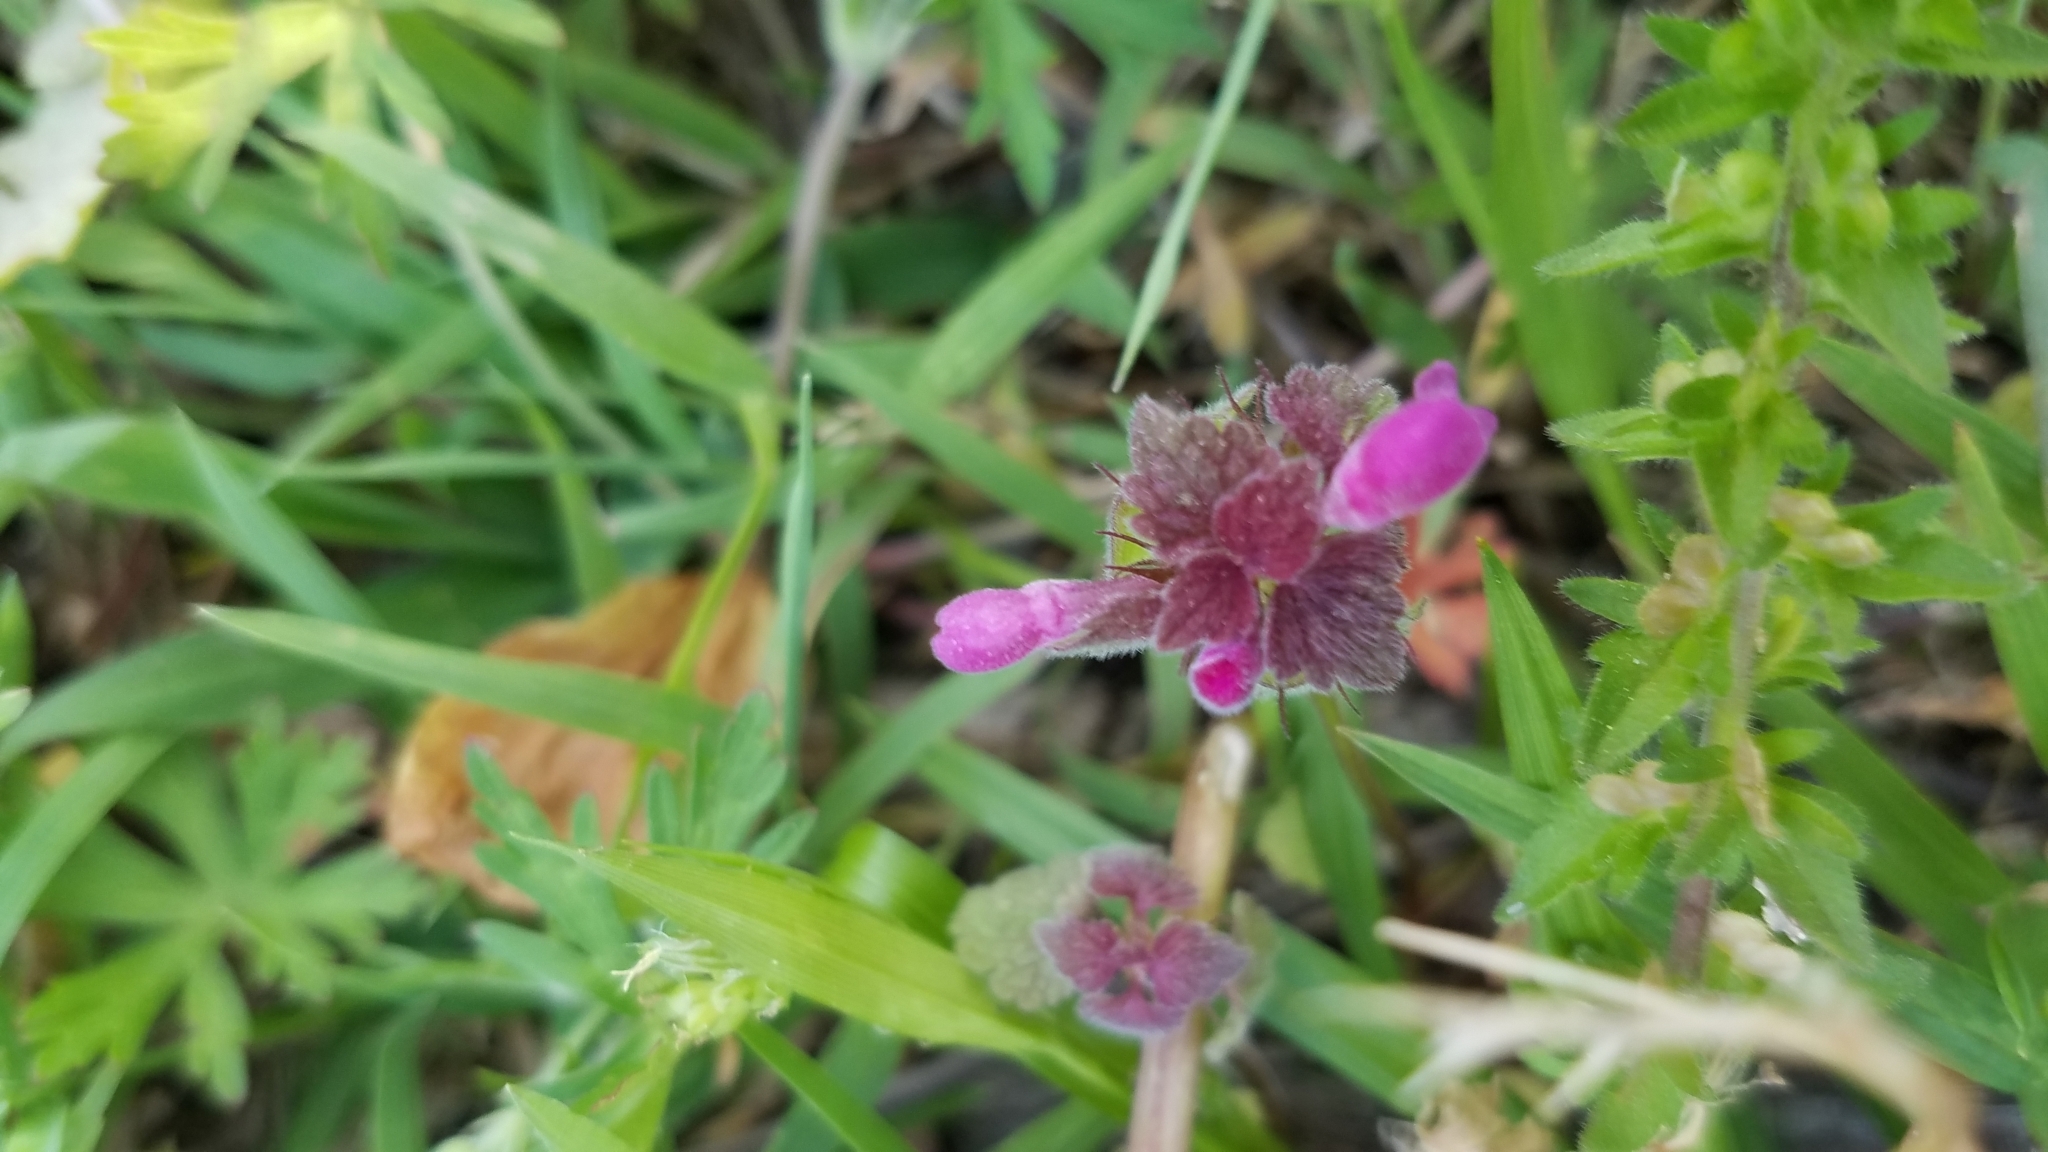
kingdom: Plantae
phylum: Tracheophyta
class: Magnoliopsida
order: Lamiales
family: Lamiaceae
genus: Lamium
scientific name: Lamium purpureum
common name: Red dead-nettle
